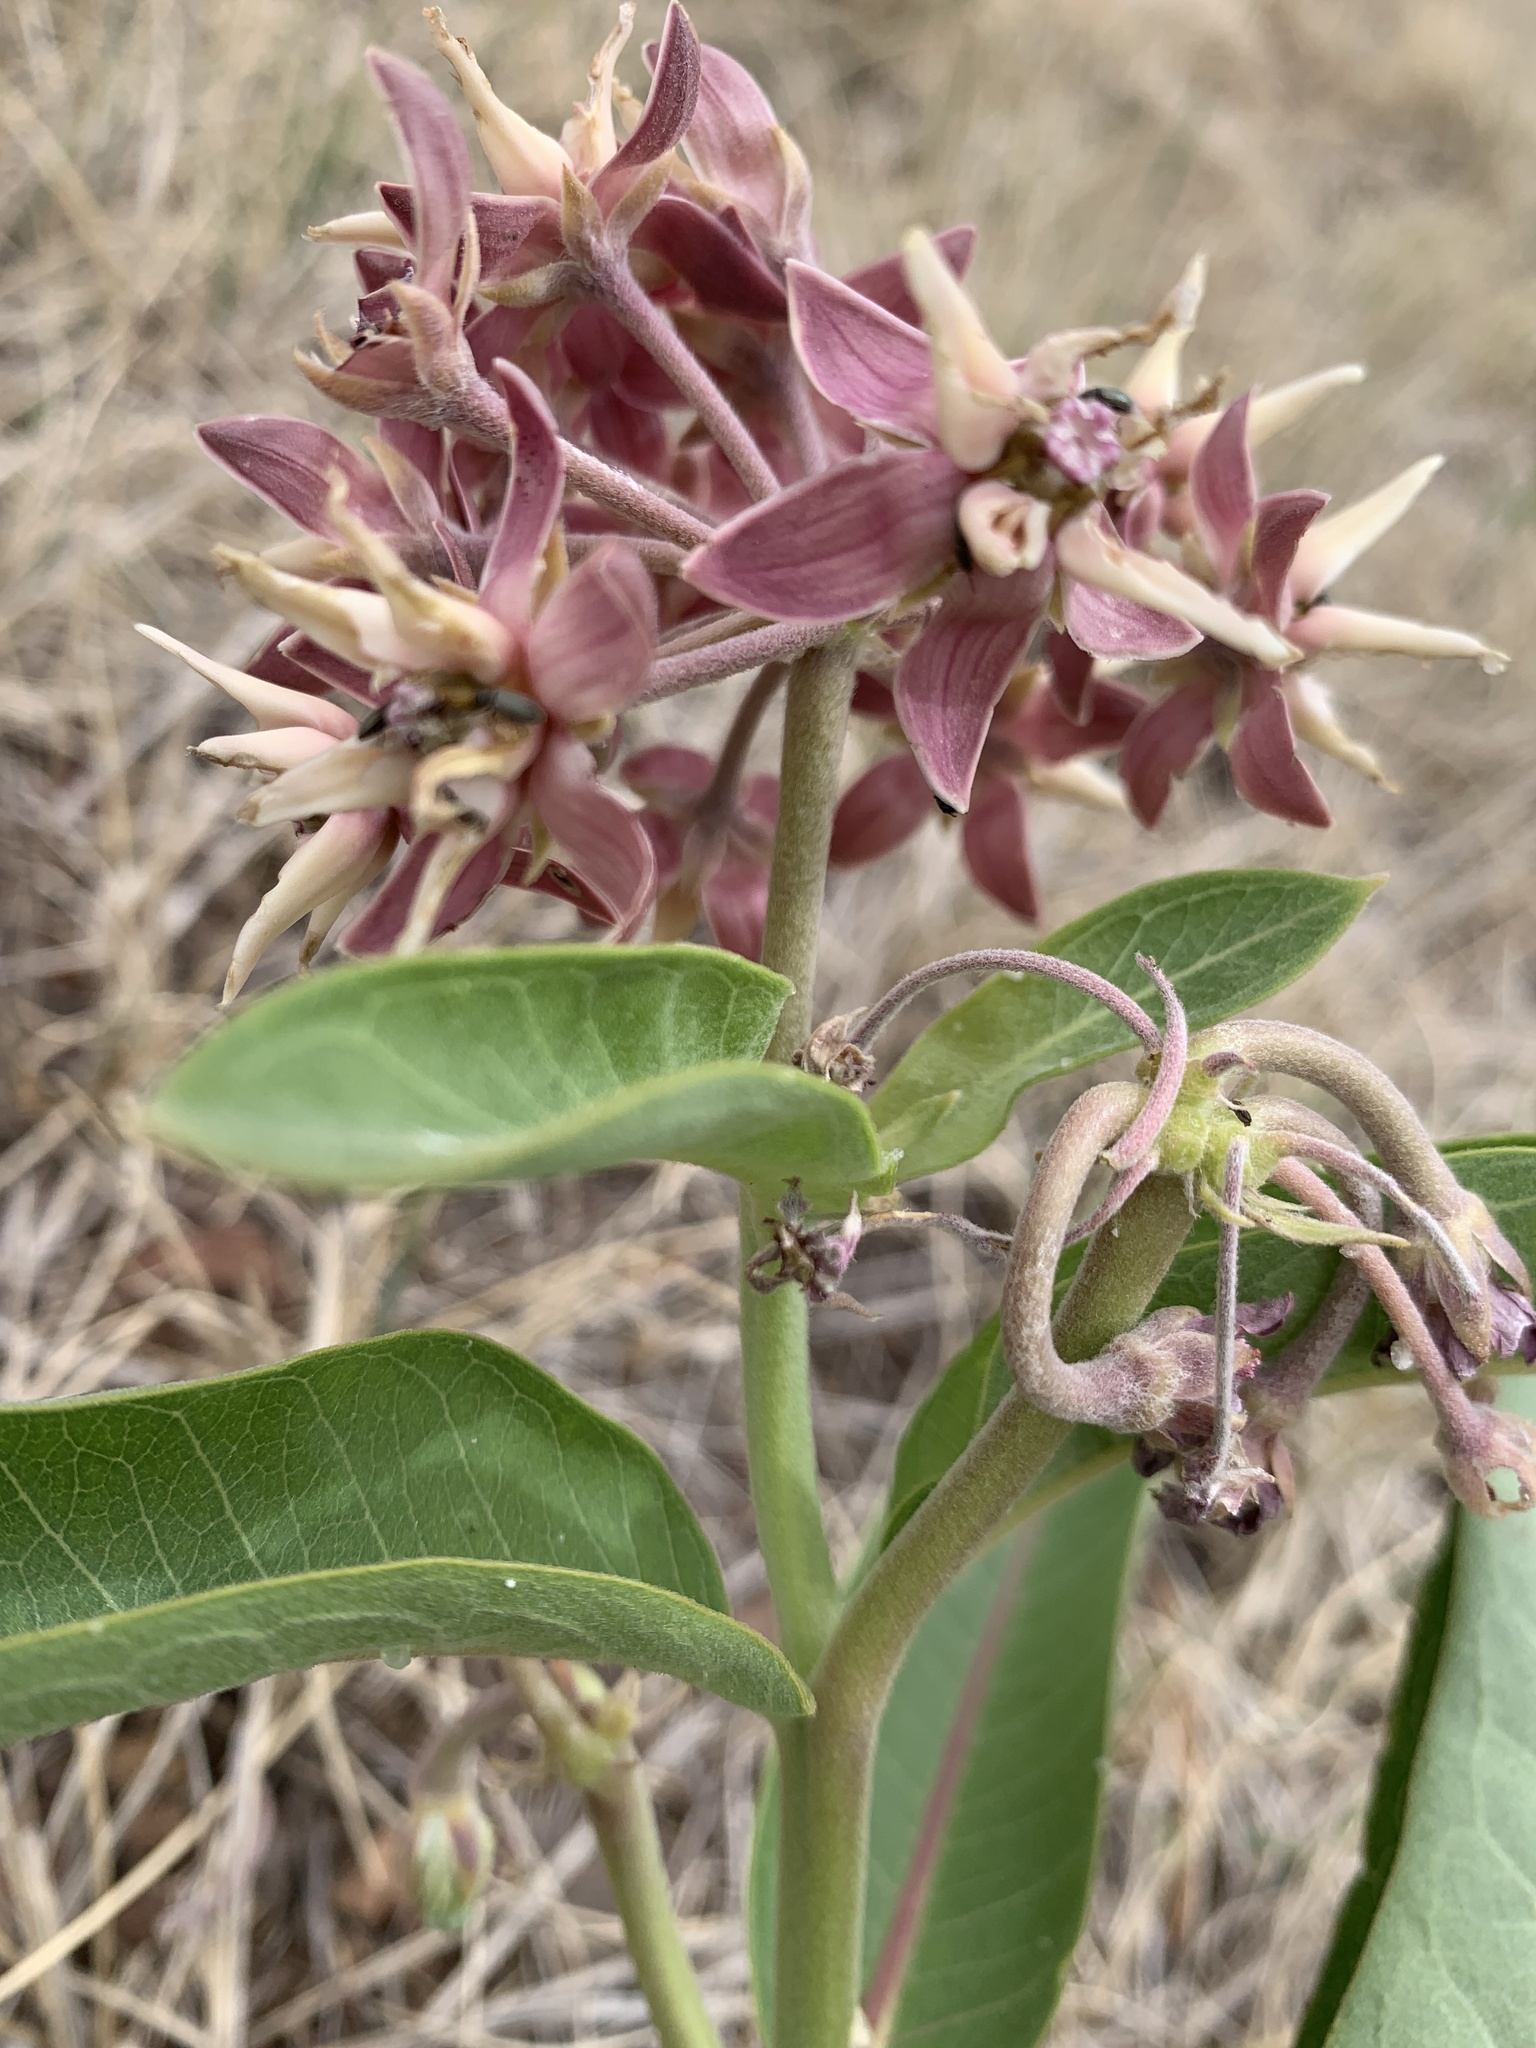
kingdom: Plantae
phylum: Tracheophyta
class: Magnoliopsida
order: Gentianales
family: Apocynaceae
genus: Asclepias
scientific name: Asclepias speciosa
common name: Showy milkweed
